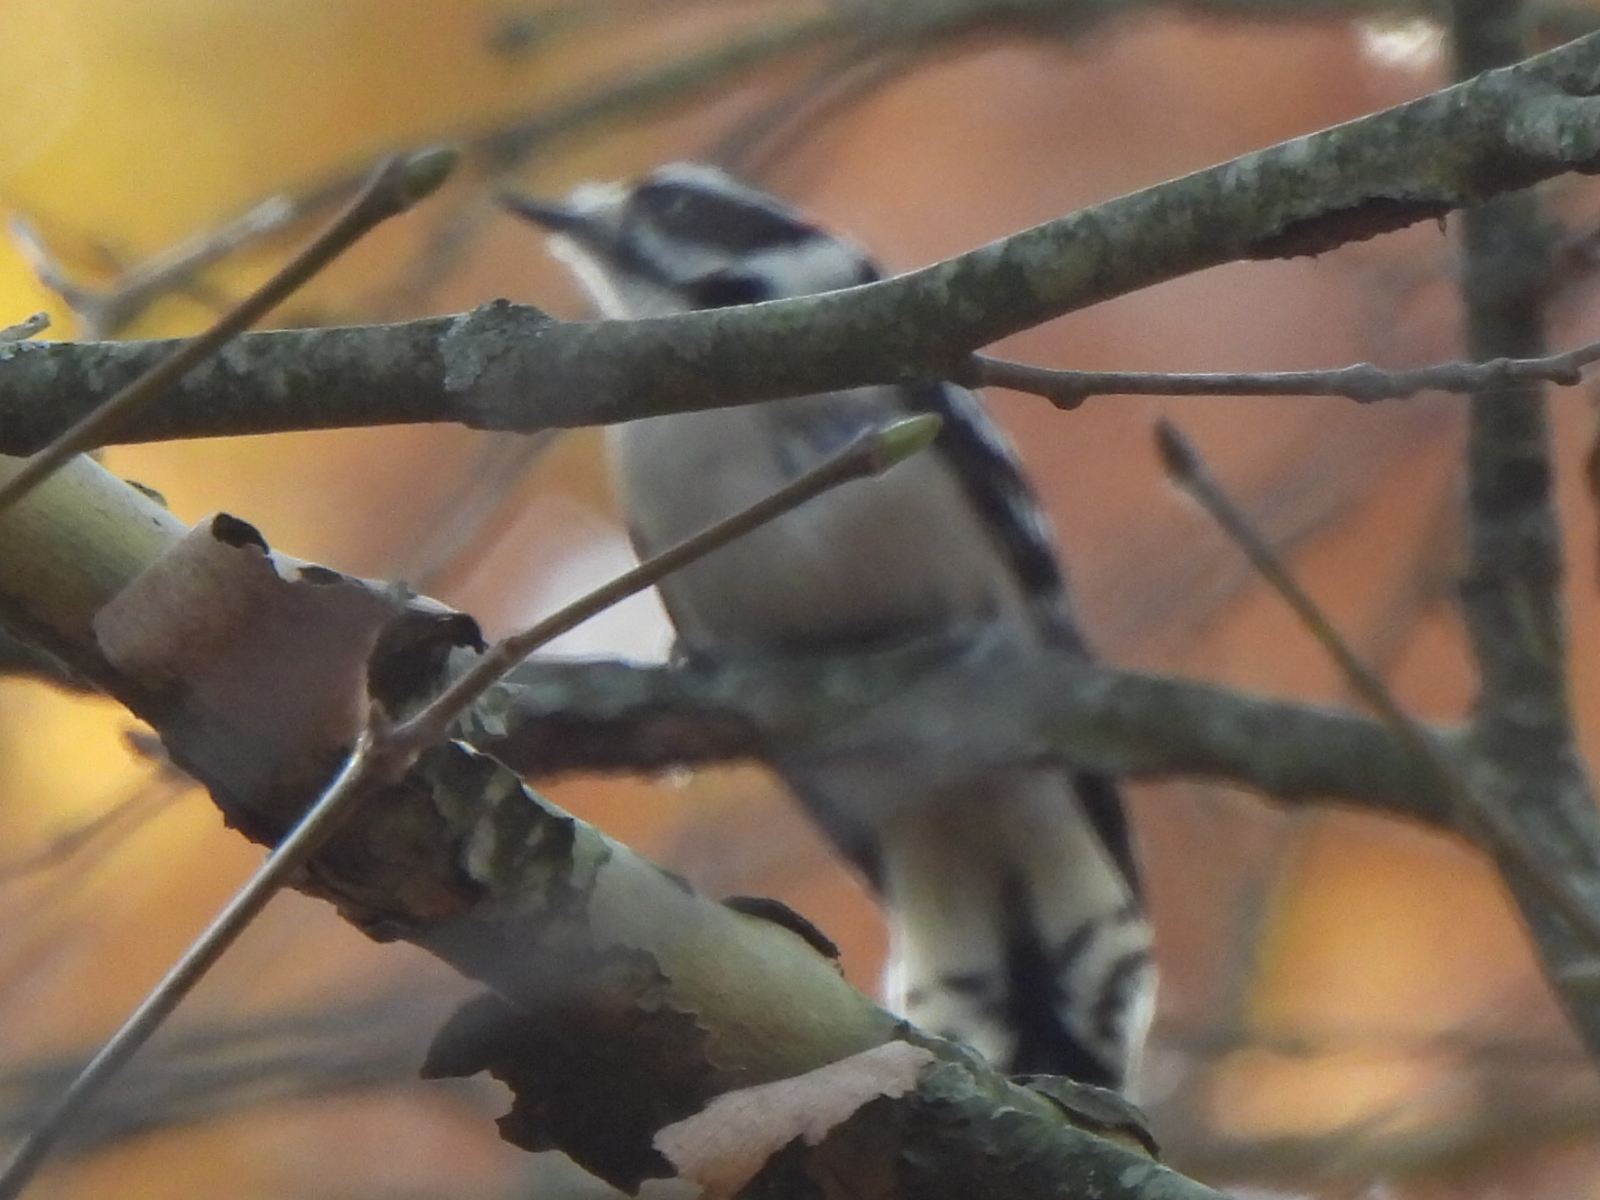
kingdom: Animalia
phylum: Chordata
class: Aves
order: Piciformes
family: Picidae
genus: Dryobates
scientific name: Dryobates pubescens
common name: Downy woodpecker
